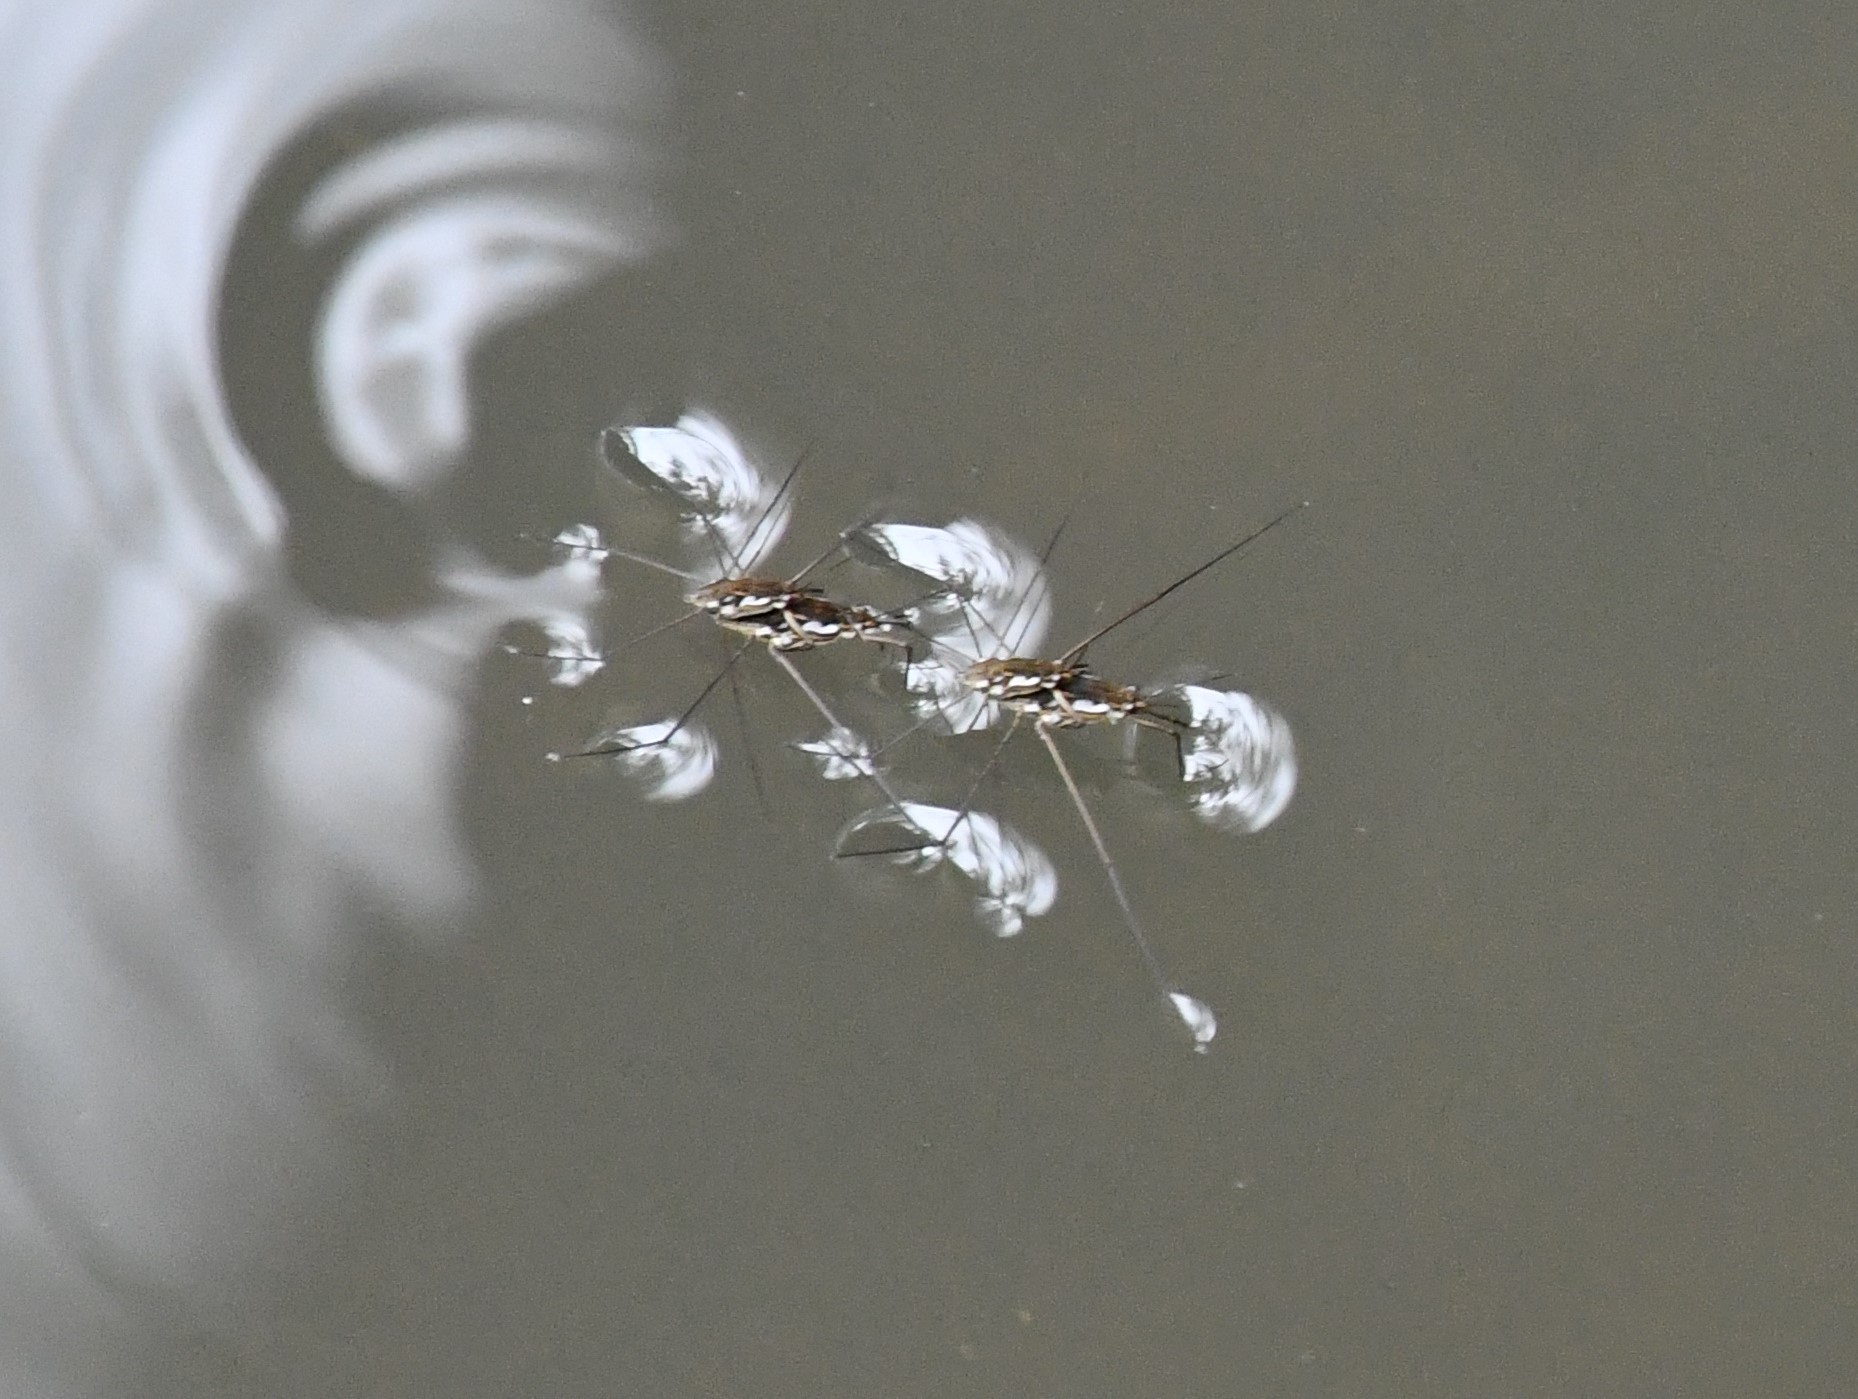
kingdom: Animalia
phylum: Arthropoda
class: Insecta
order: Hemiptera
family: Gerridae
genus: Tenagogerris
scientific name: Tenagogerris euphrosyne
